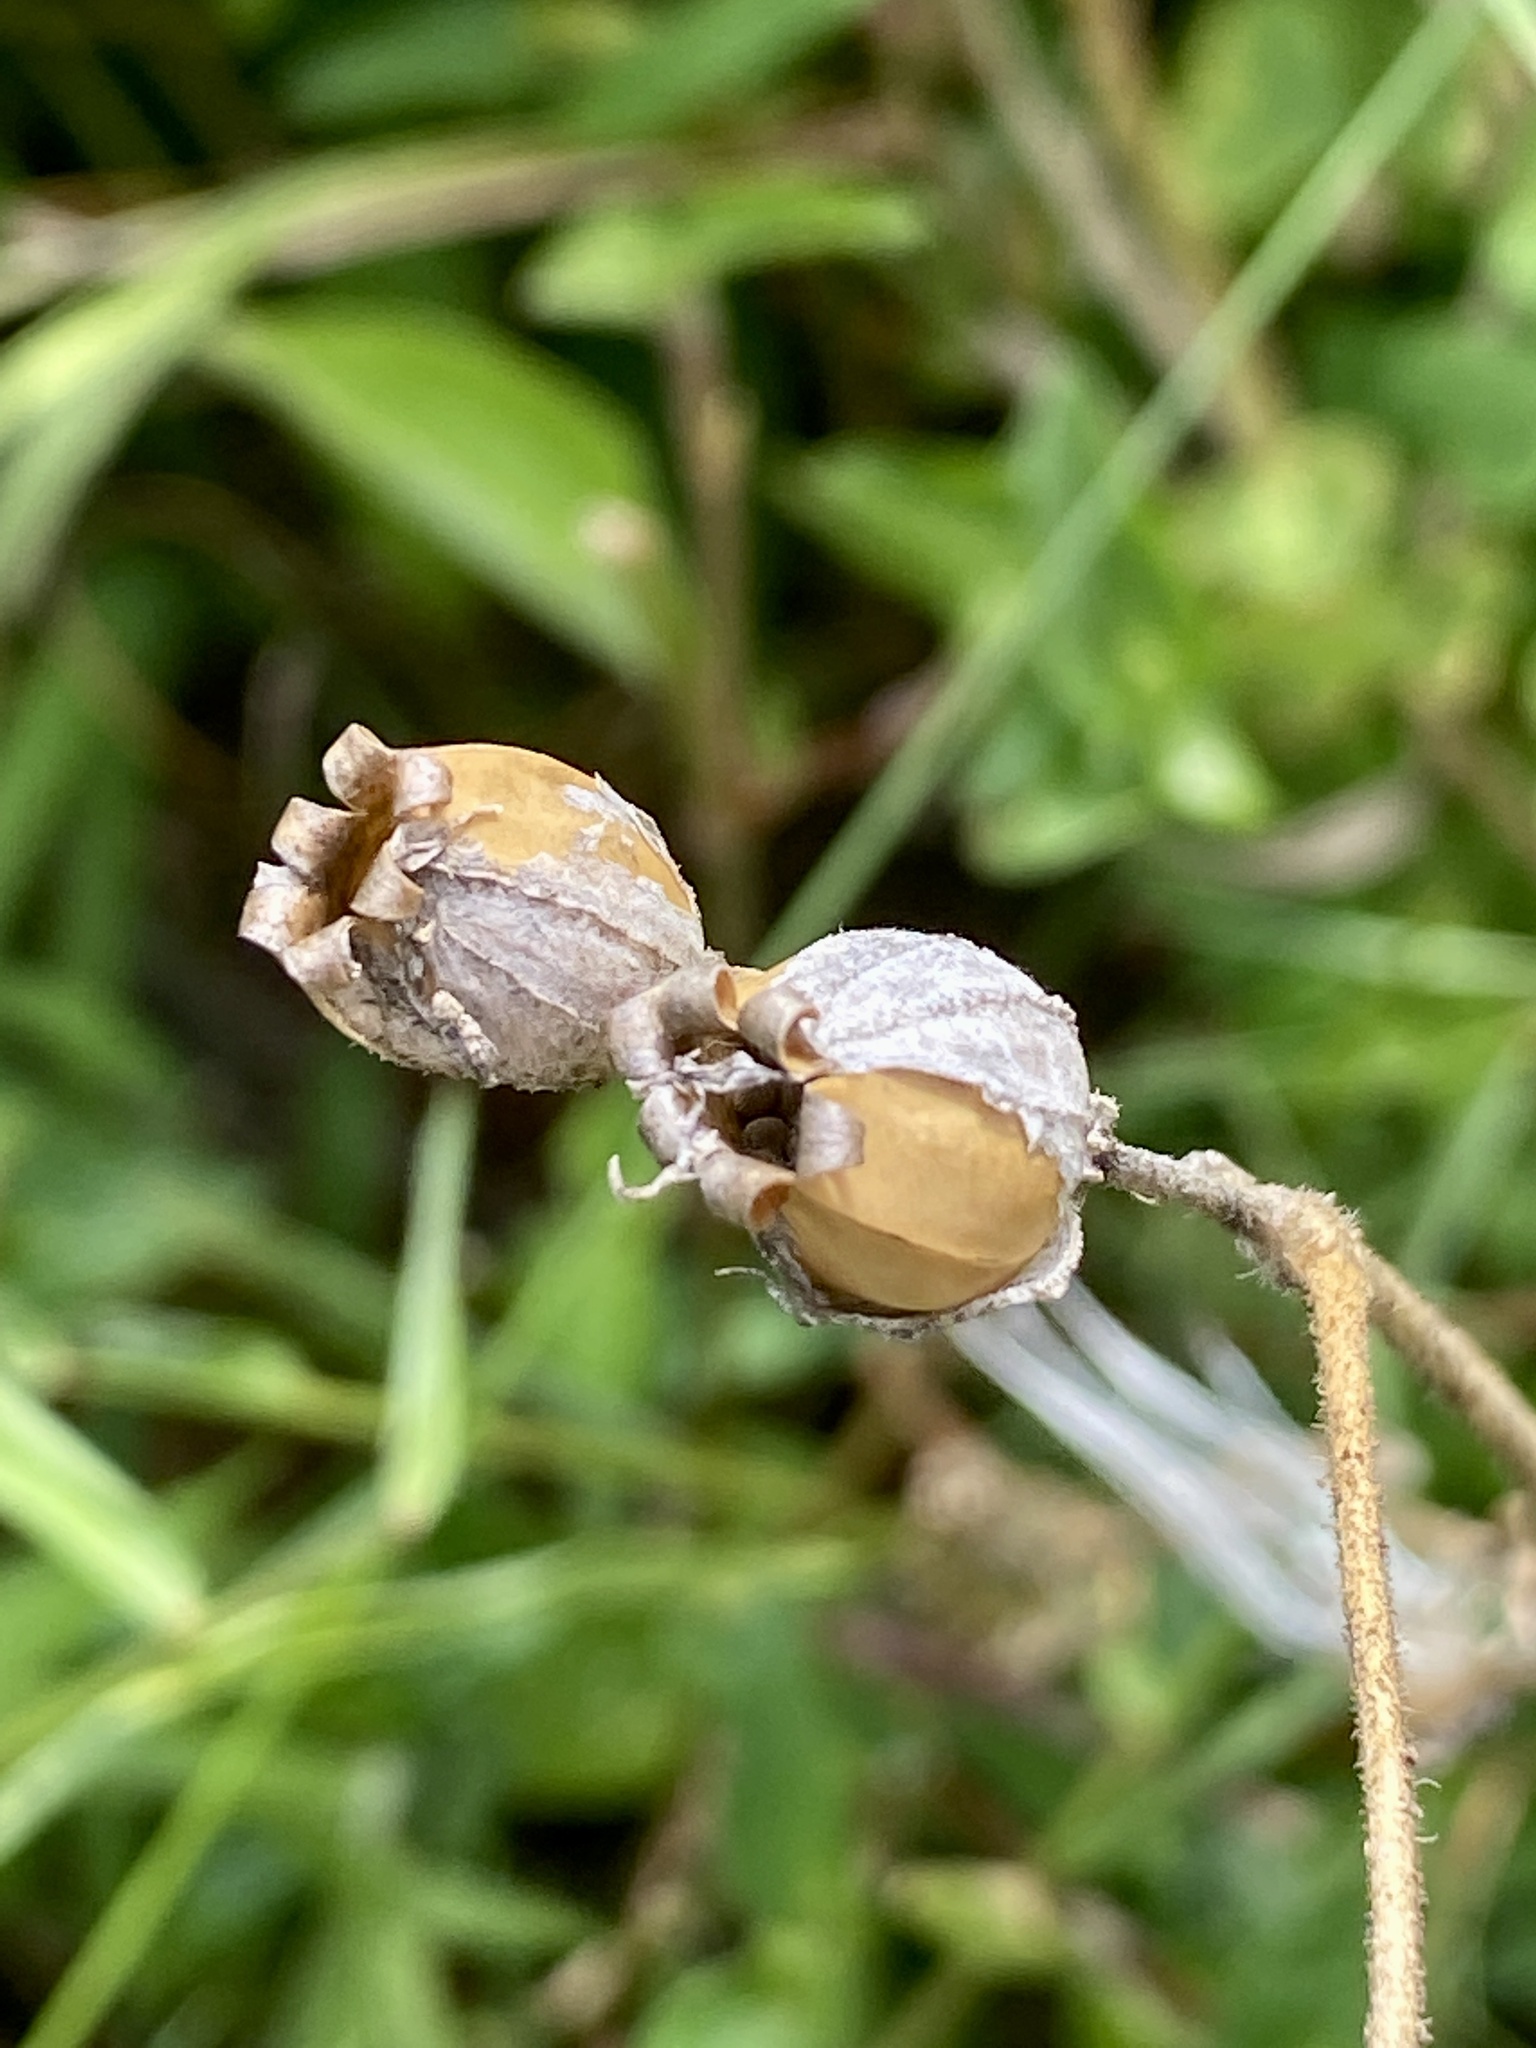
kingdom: Plantae
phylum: Tracheophyta
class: Magnoliopsida
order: Caryophyllales
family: Caryophyllaceae
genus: Silene
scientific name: Silene latifolia
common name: White campion
